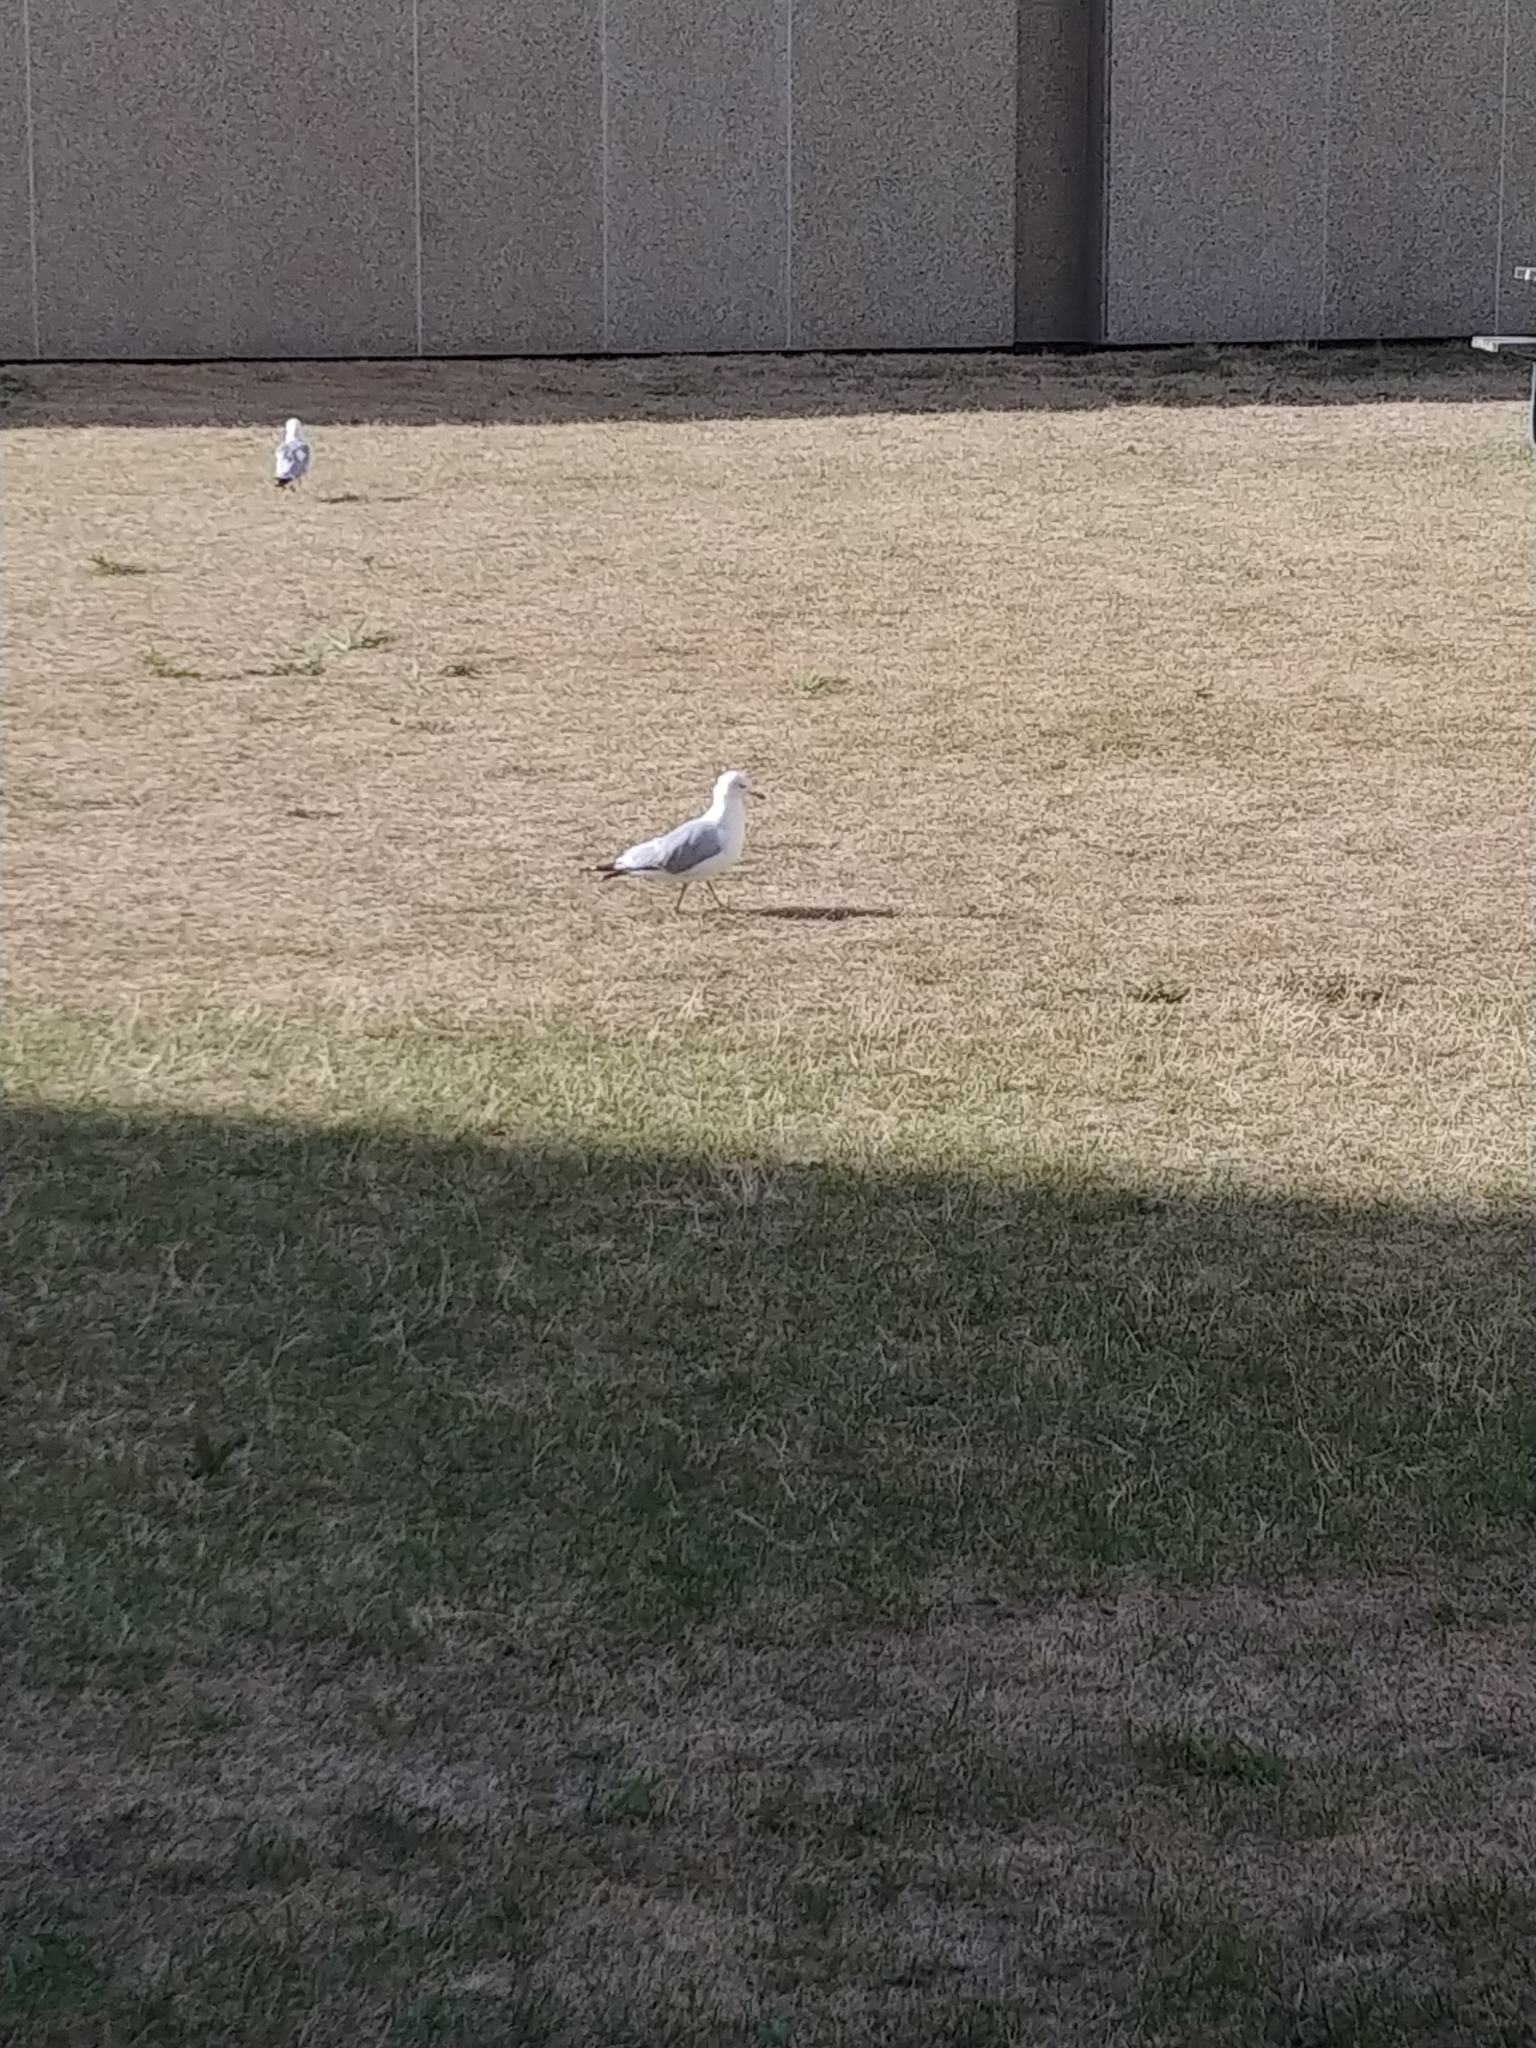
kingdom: Animalia
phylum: Chordata
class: Aves
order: Charadriiformes
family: Laridae
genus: Larus
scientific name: Larus delawarensis
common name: Ring-billed gull
